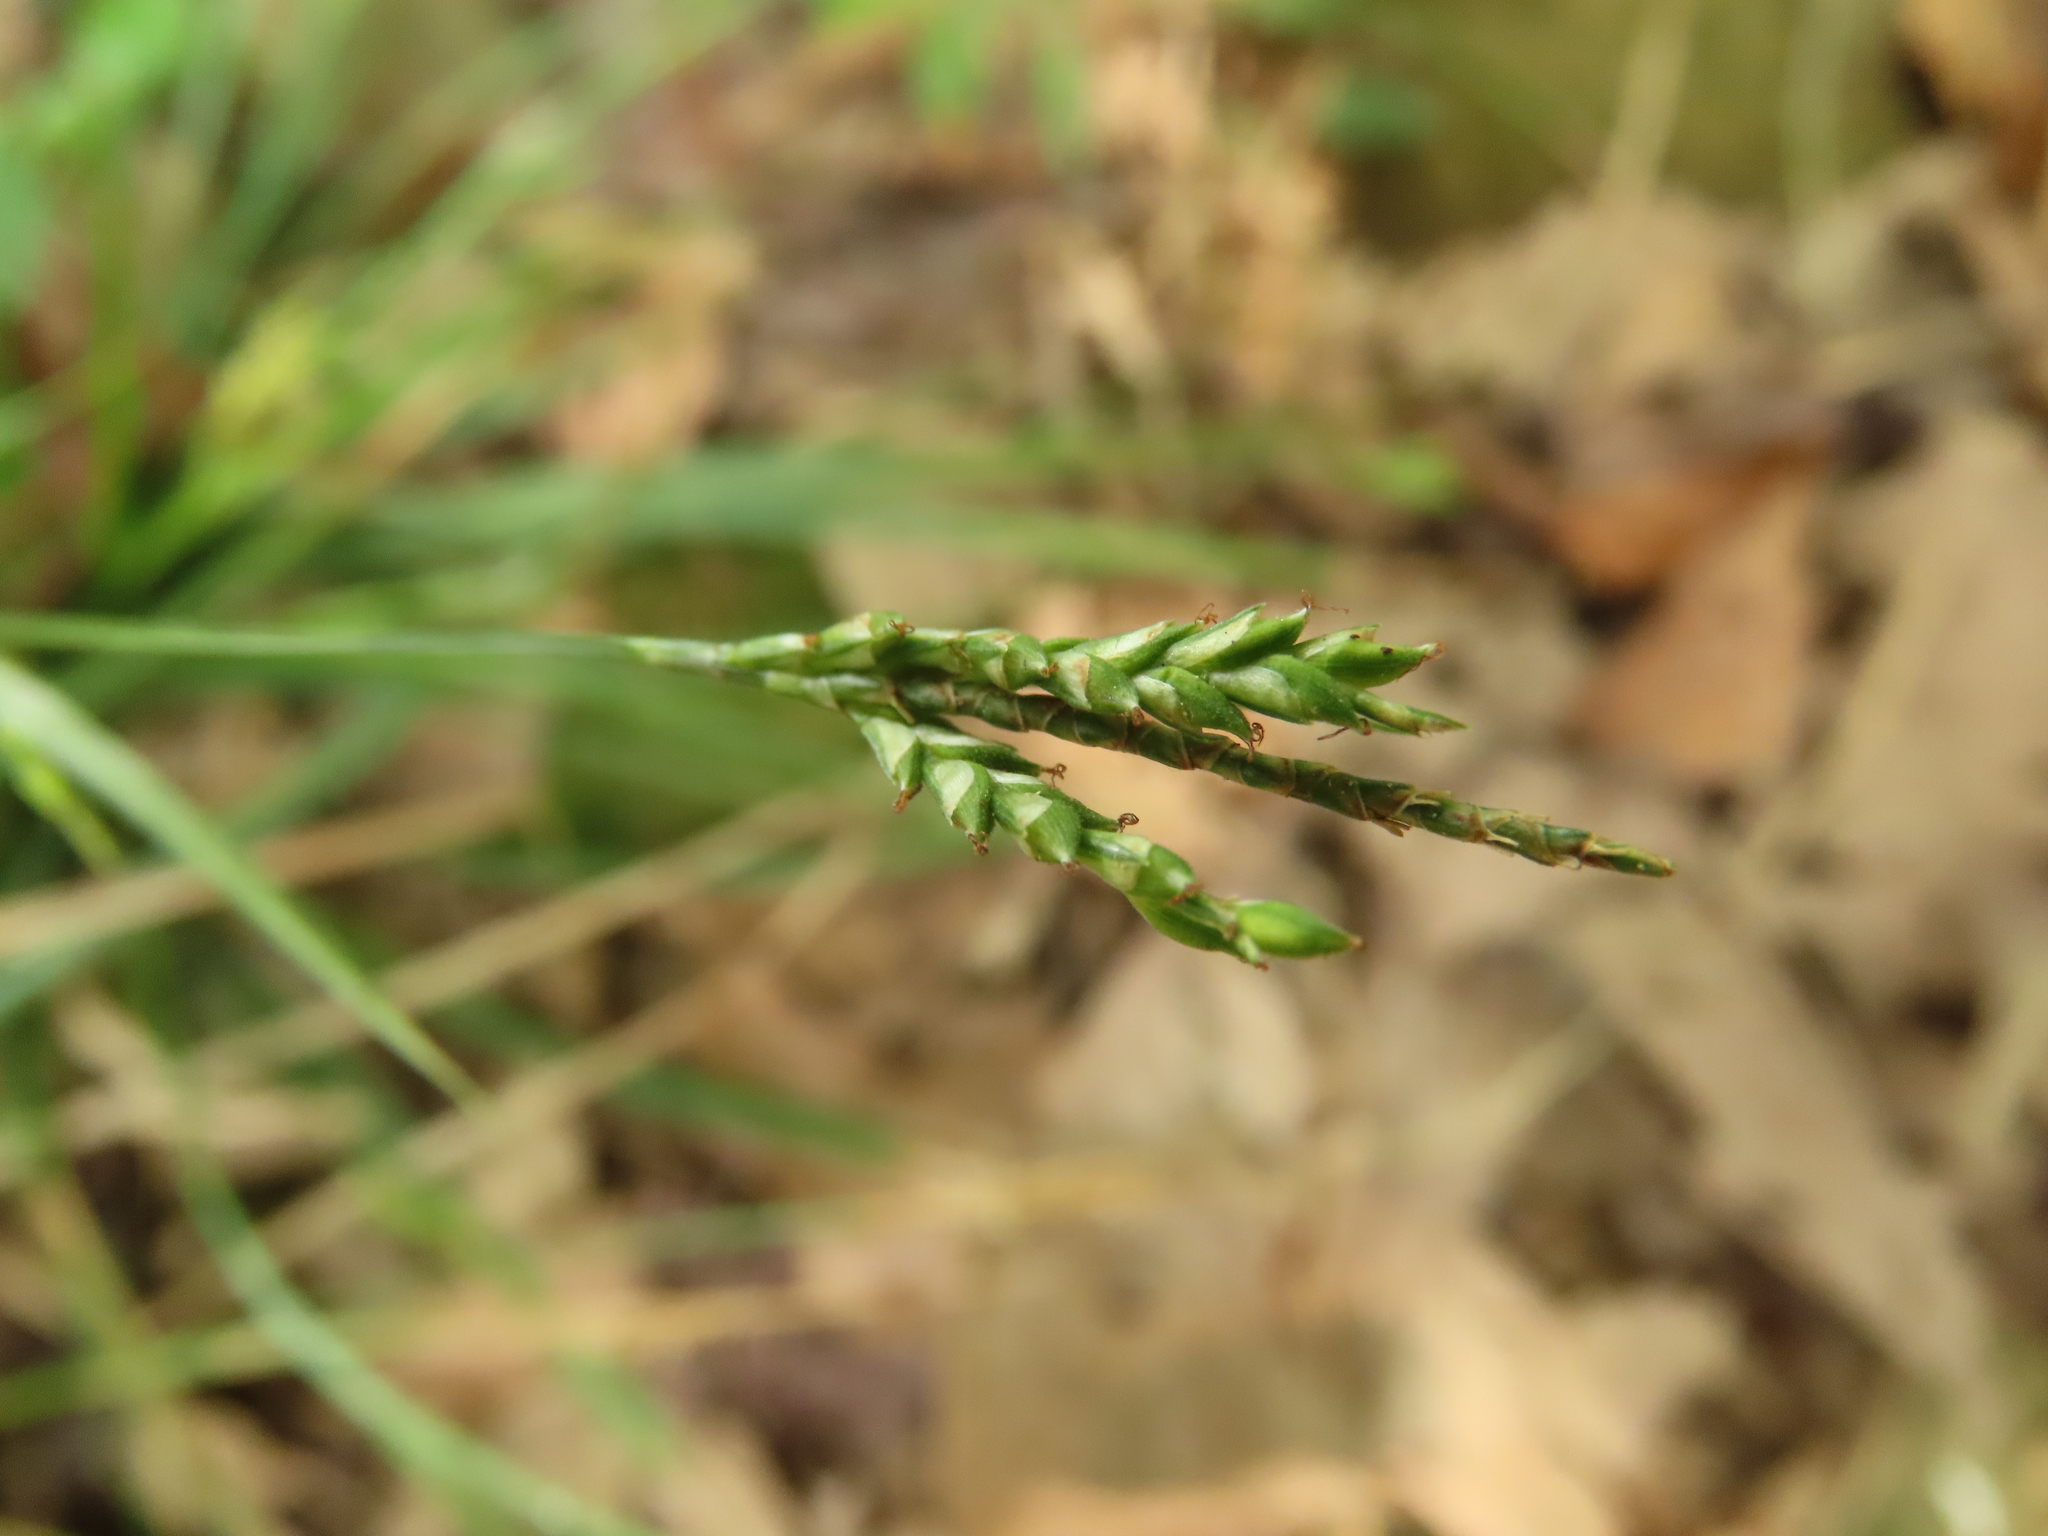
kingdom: Plantae
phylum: Tracheophyta
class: Liliopsida
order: Poales
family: Cyperaceae
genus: Carex
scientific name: Carex tristachya
